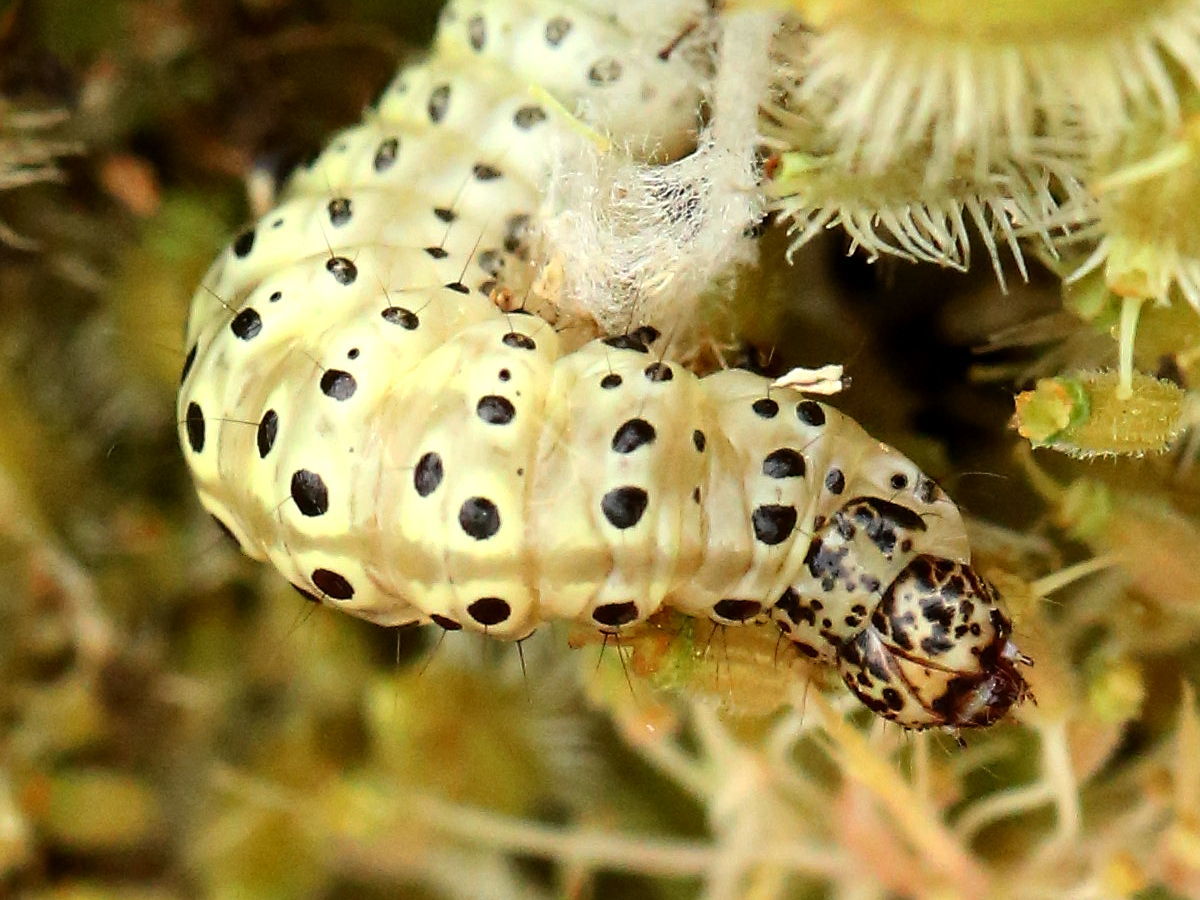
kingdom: Animalia
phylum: Arthropoda
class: Insecta
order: Lepidoptera
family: Crambidae
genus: Sitochroa
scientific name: Sitochroa palealis
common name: Greenish-yellow sitochroa moth
